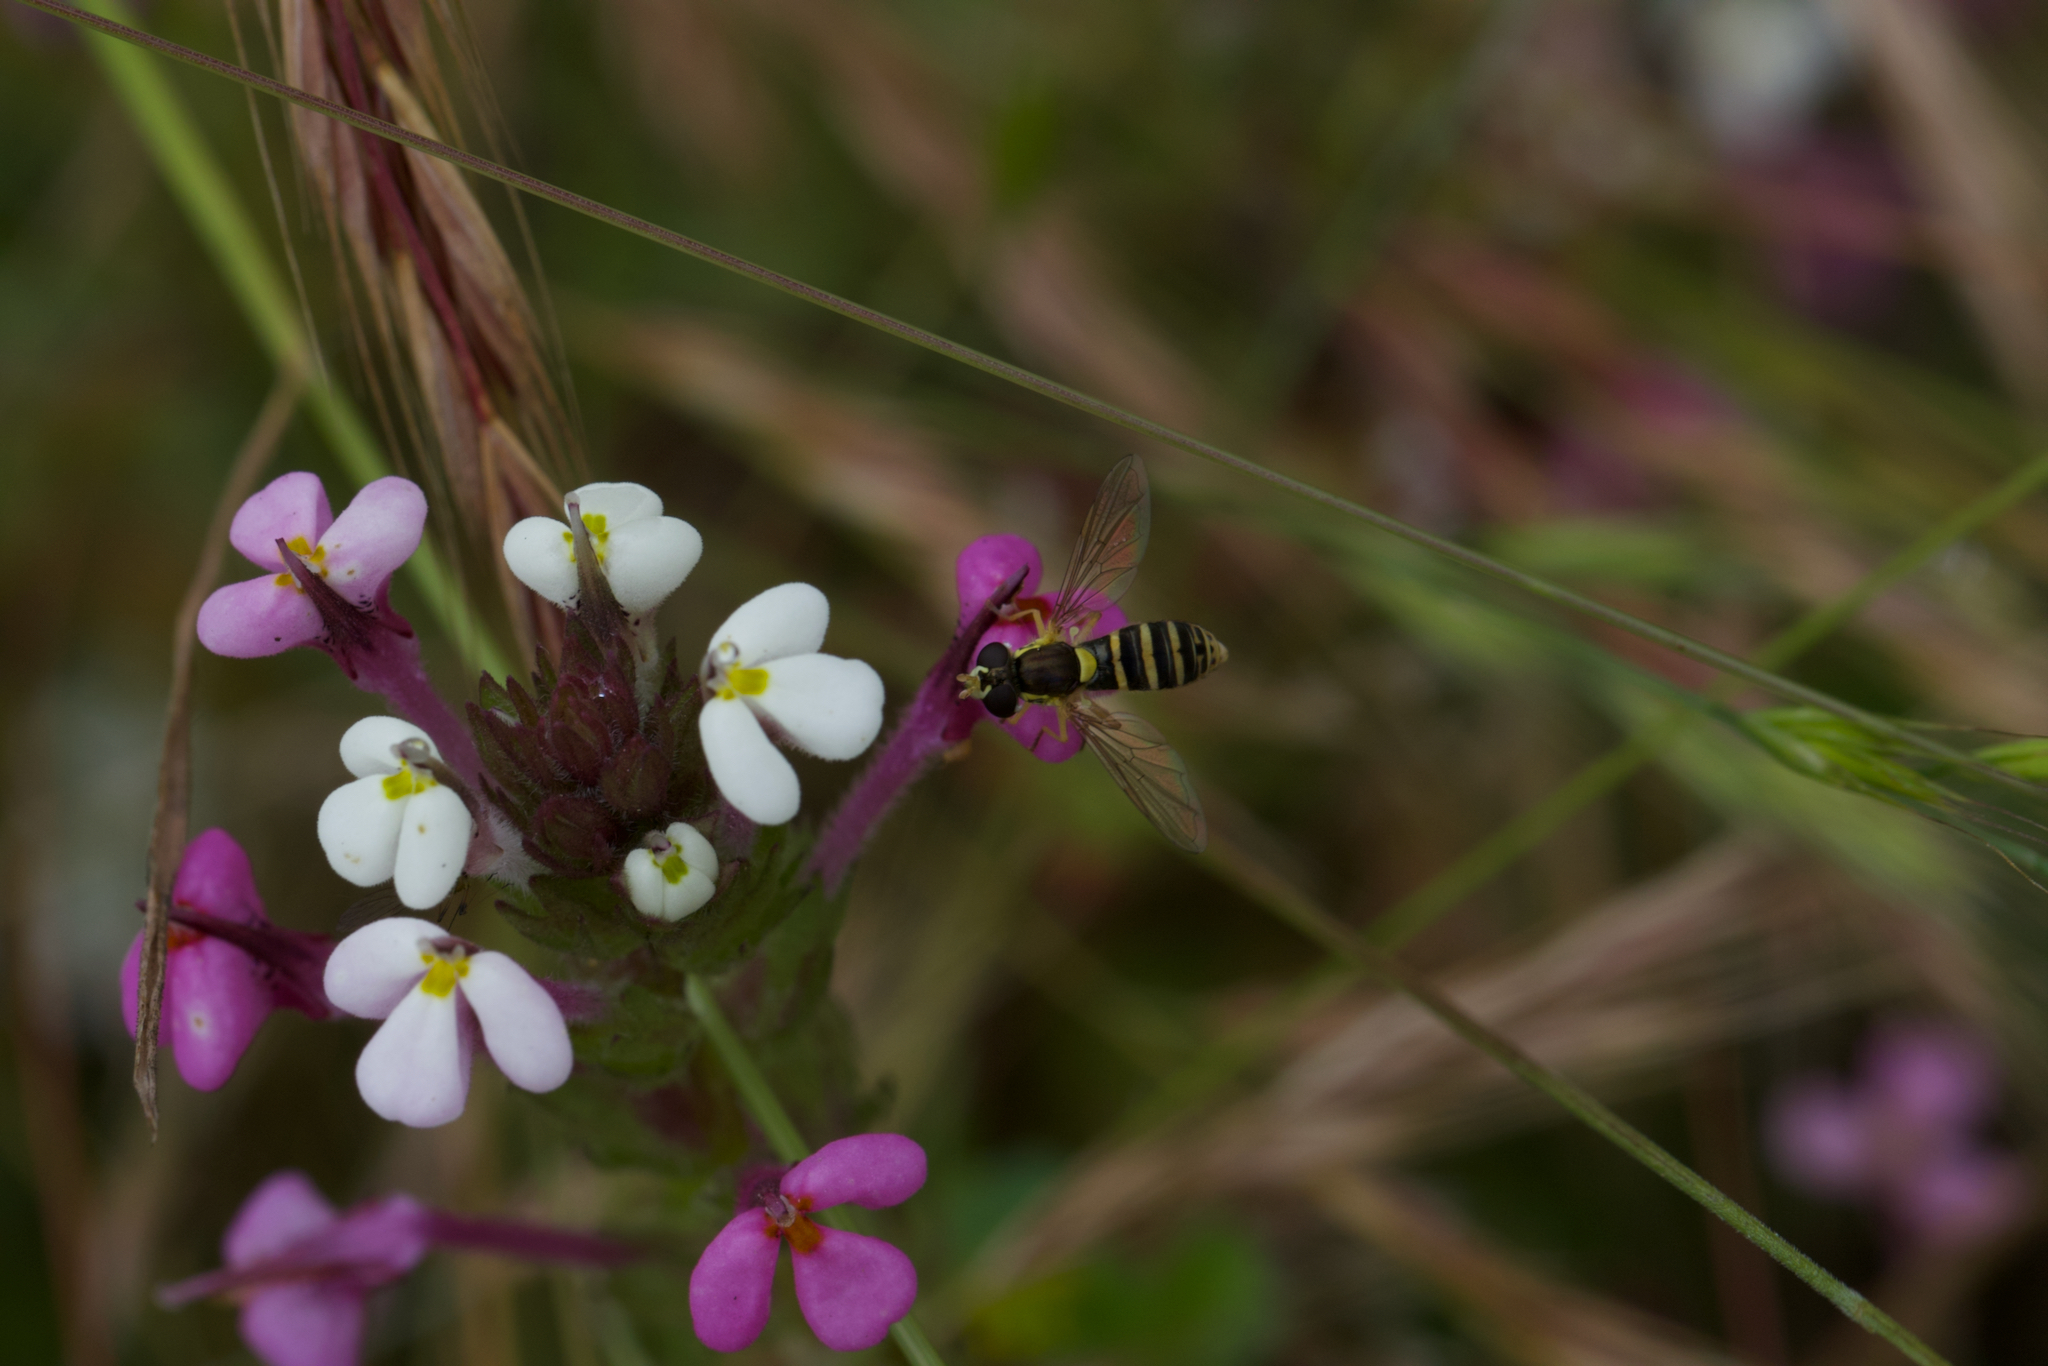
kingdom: Animalia
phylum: Arthropoda
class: Insecta
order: Diptera
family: Syrphidae
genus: Sphaerophoria
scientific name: Sphaerophoria sulphuripes
